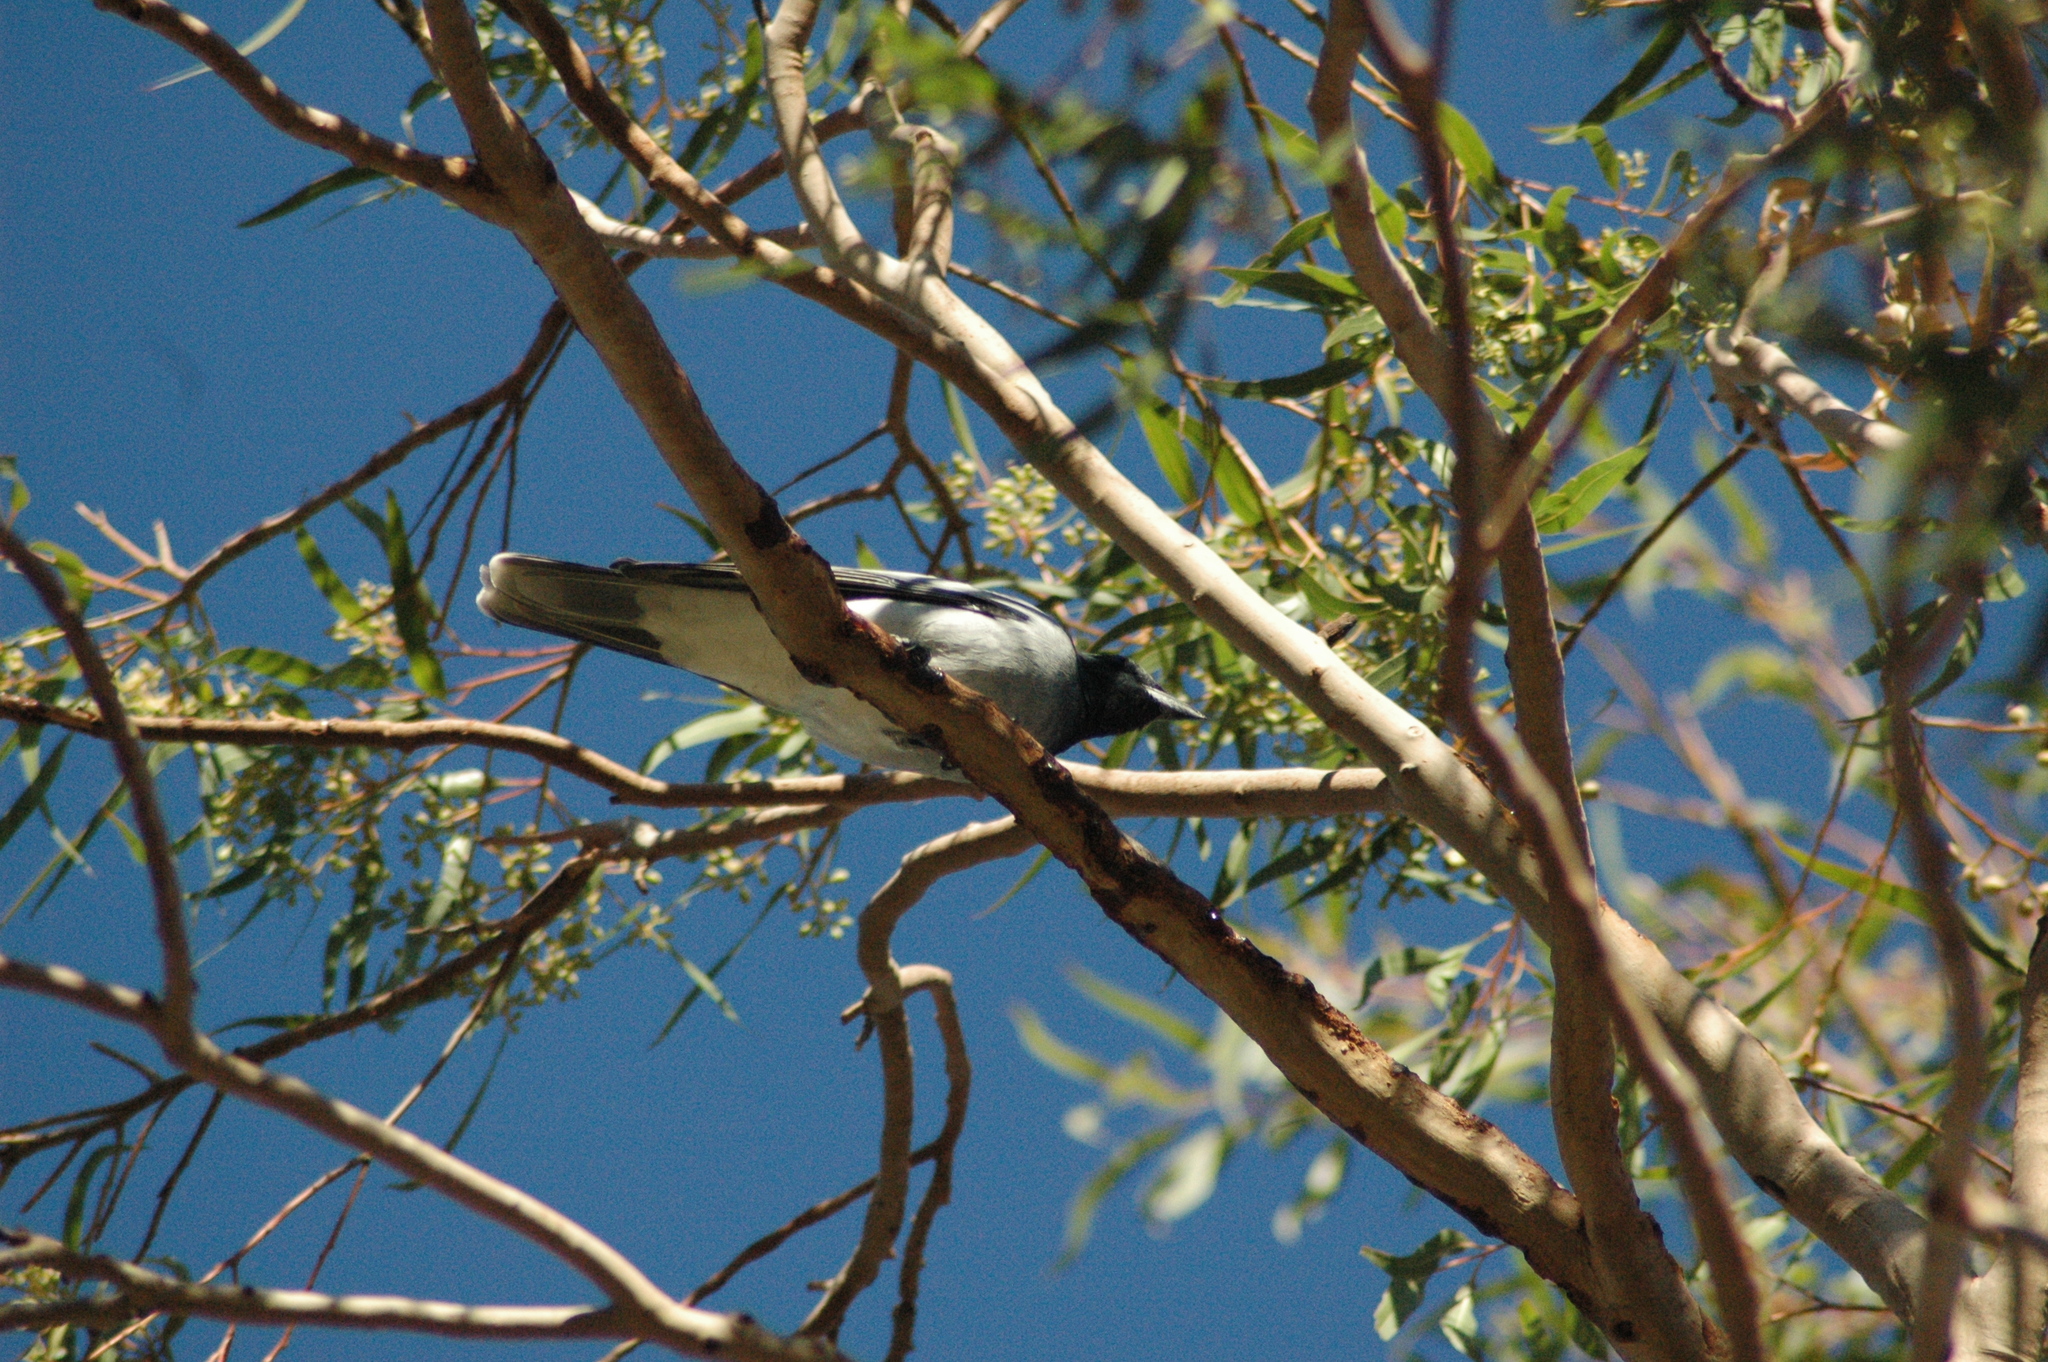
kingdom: Animalia
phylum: Chordata
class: Aves
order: Passeriformes
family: Campephagidae
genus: Coracina
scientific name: Coracina novaehollandiae
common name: Black-faced cuckooshrike
